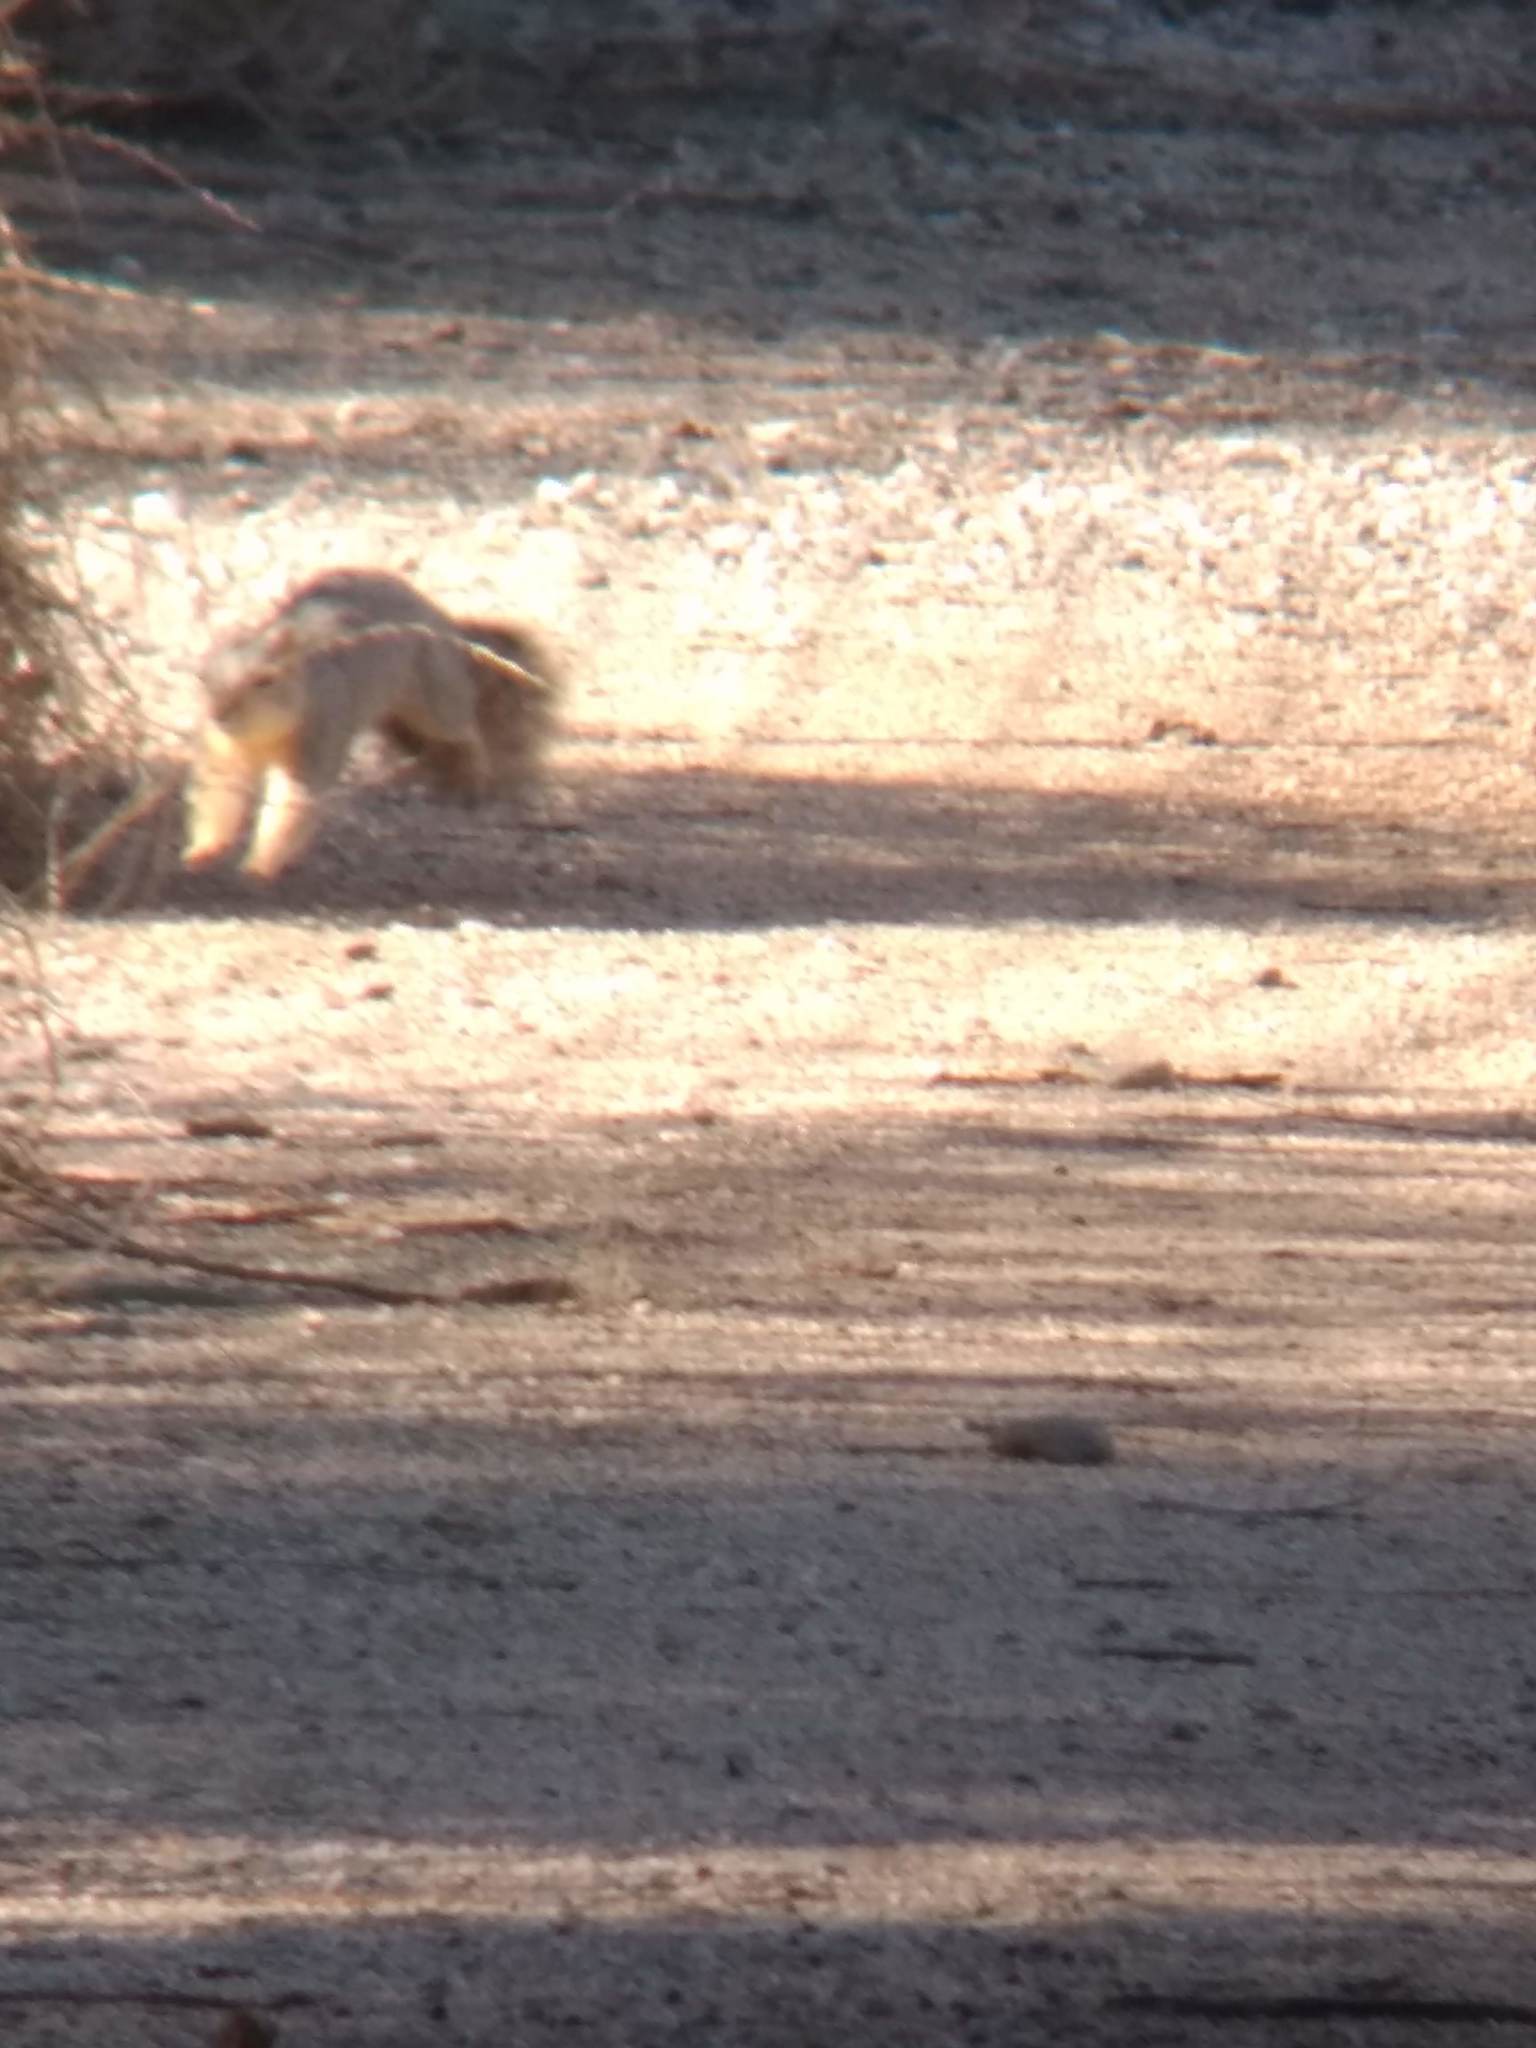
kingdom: Animalia
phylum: Chordata
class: Mammalia
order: Rodentia
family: Sciuridae
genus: Sciurus
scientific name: Sciurus niger
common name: Fox squirrel
